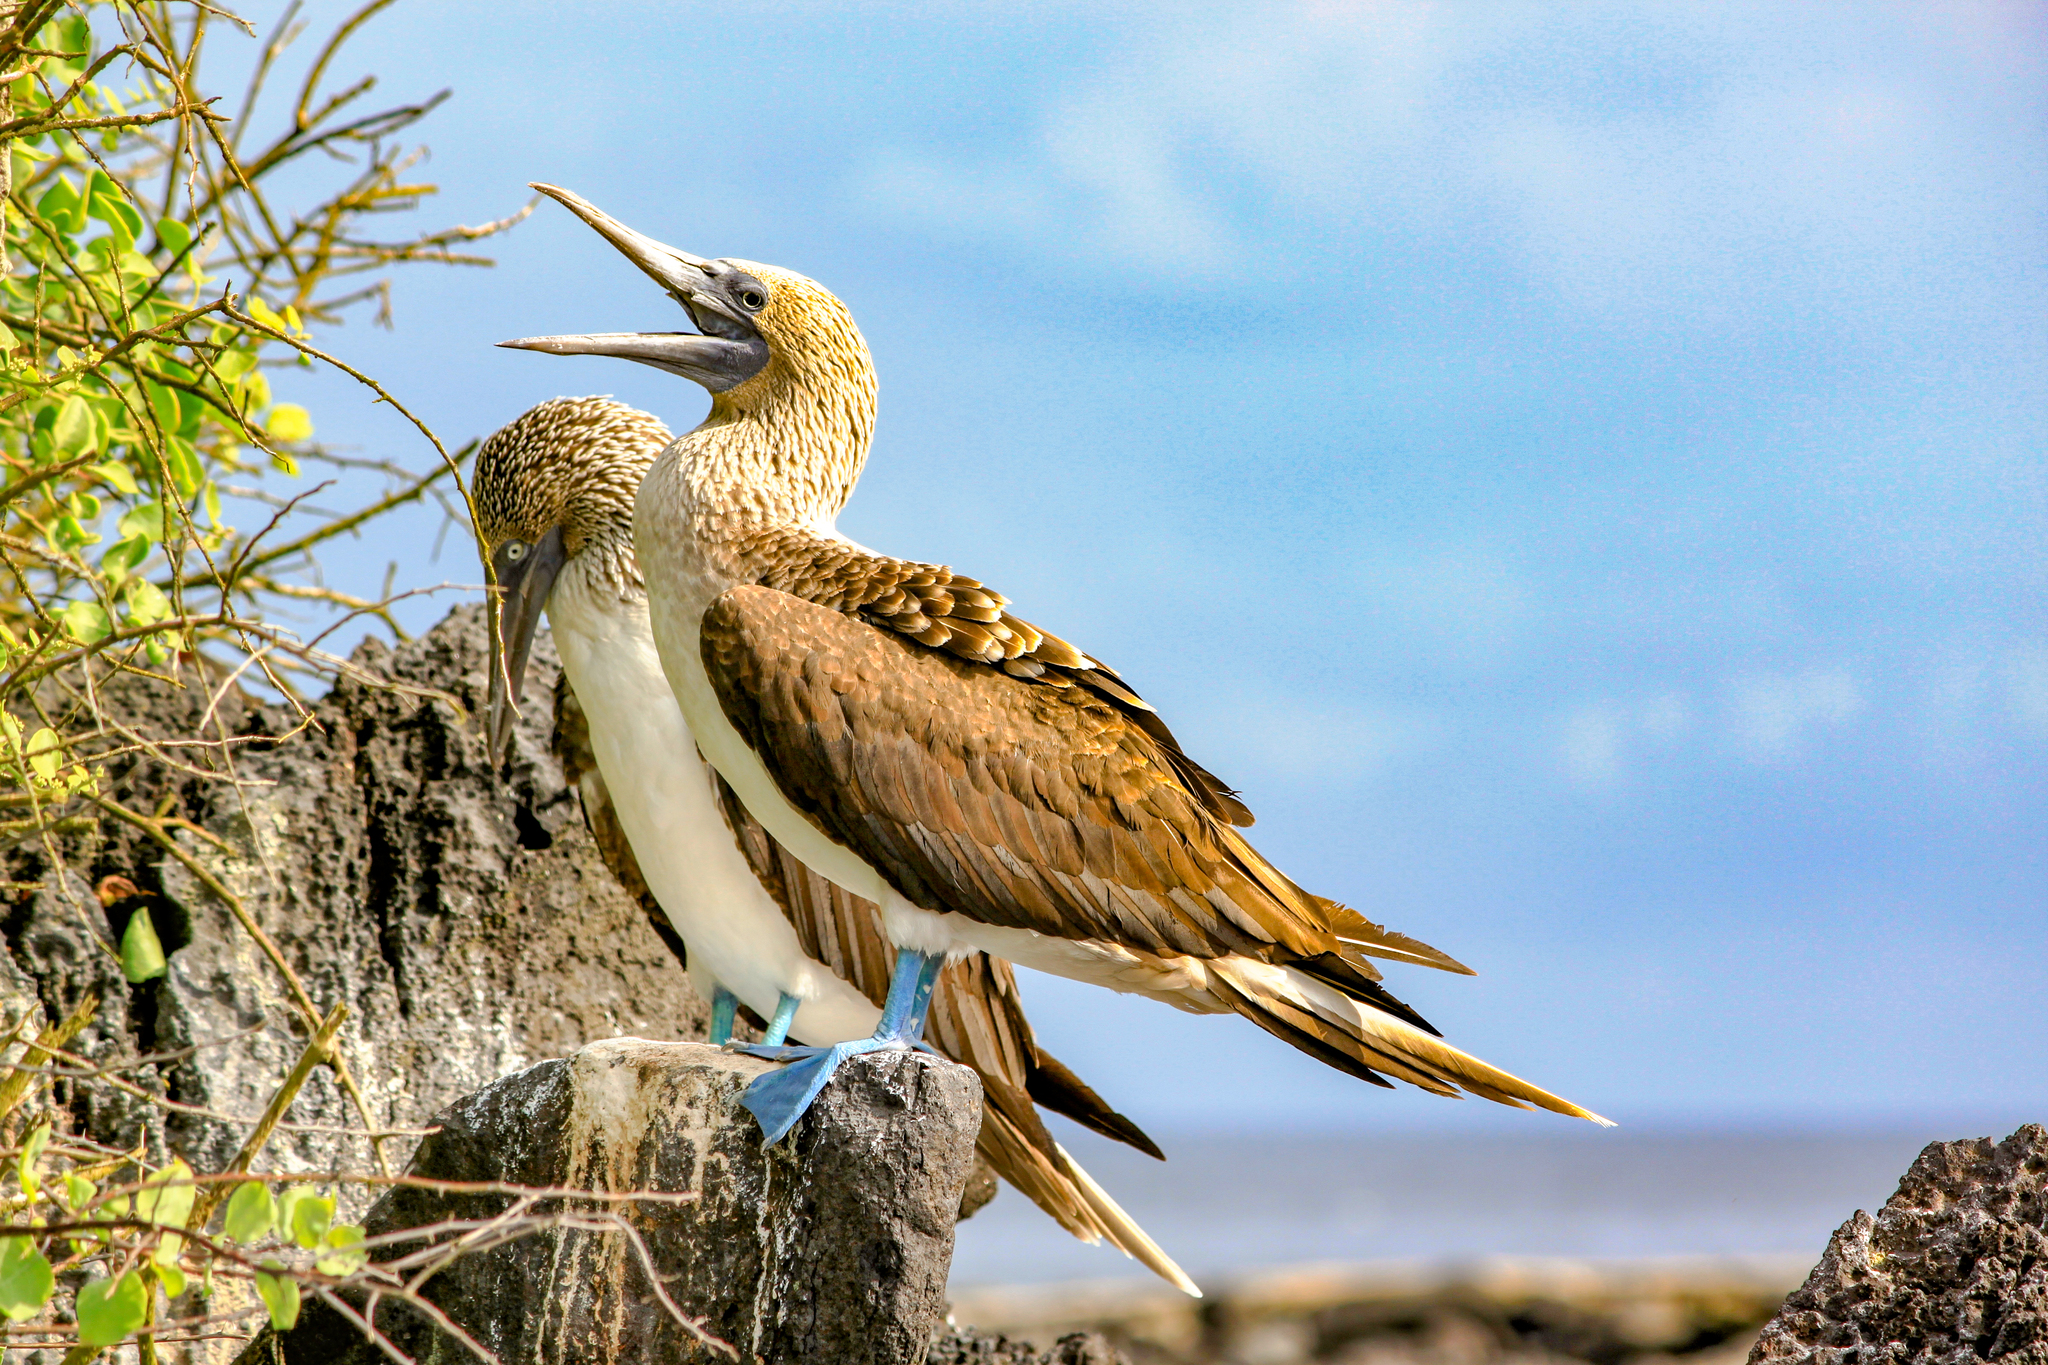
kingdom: Animalia
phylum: Chordata
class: Aves
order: Suliformes
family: Sulidae
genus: Sula
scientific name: Sula nebouxii
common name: Blue-footed booby
